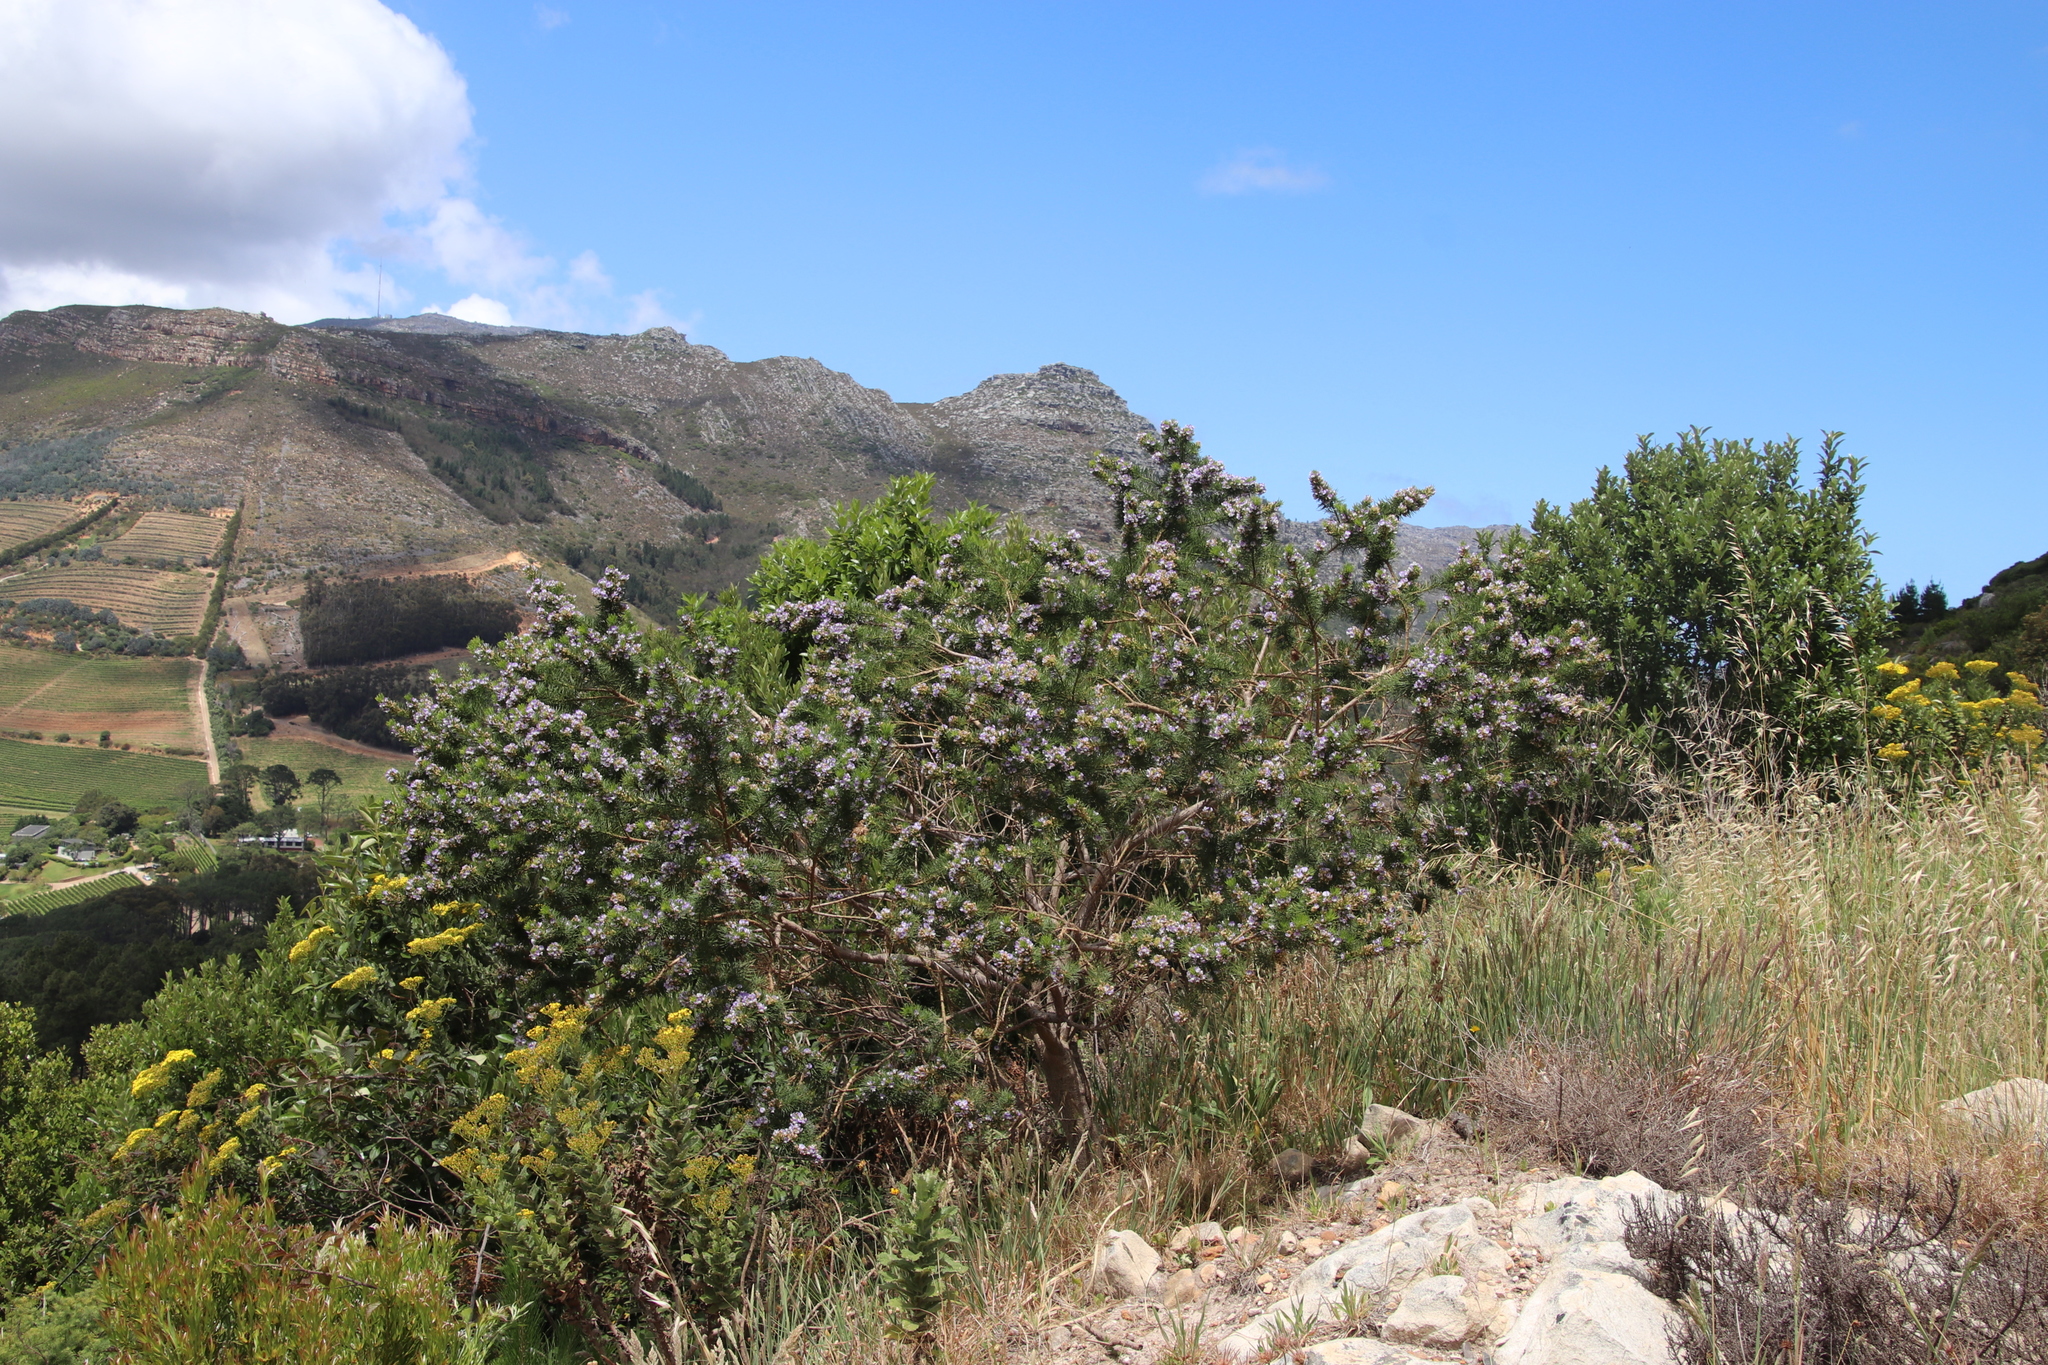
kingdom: Plantae
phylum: Tracheophyta
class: Magnoliopsida
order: Fabales
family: Fabaceae
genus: Psoralea
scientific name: Psoralea pinnata
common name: African scurfpea
